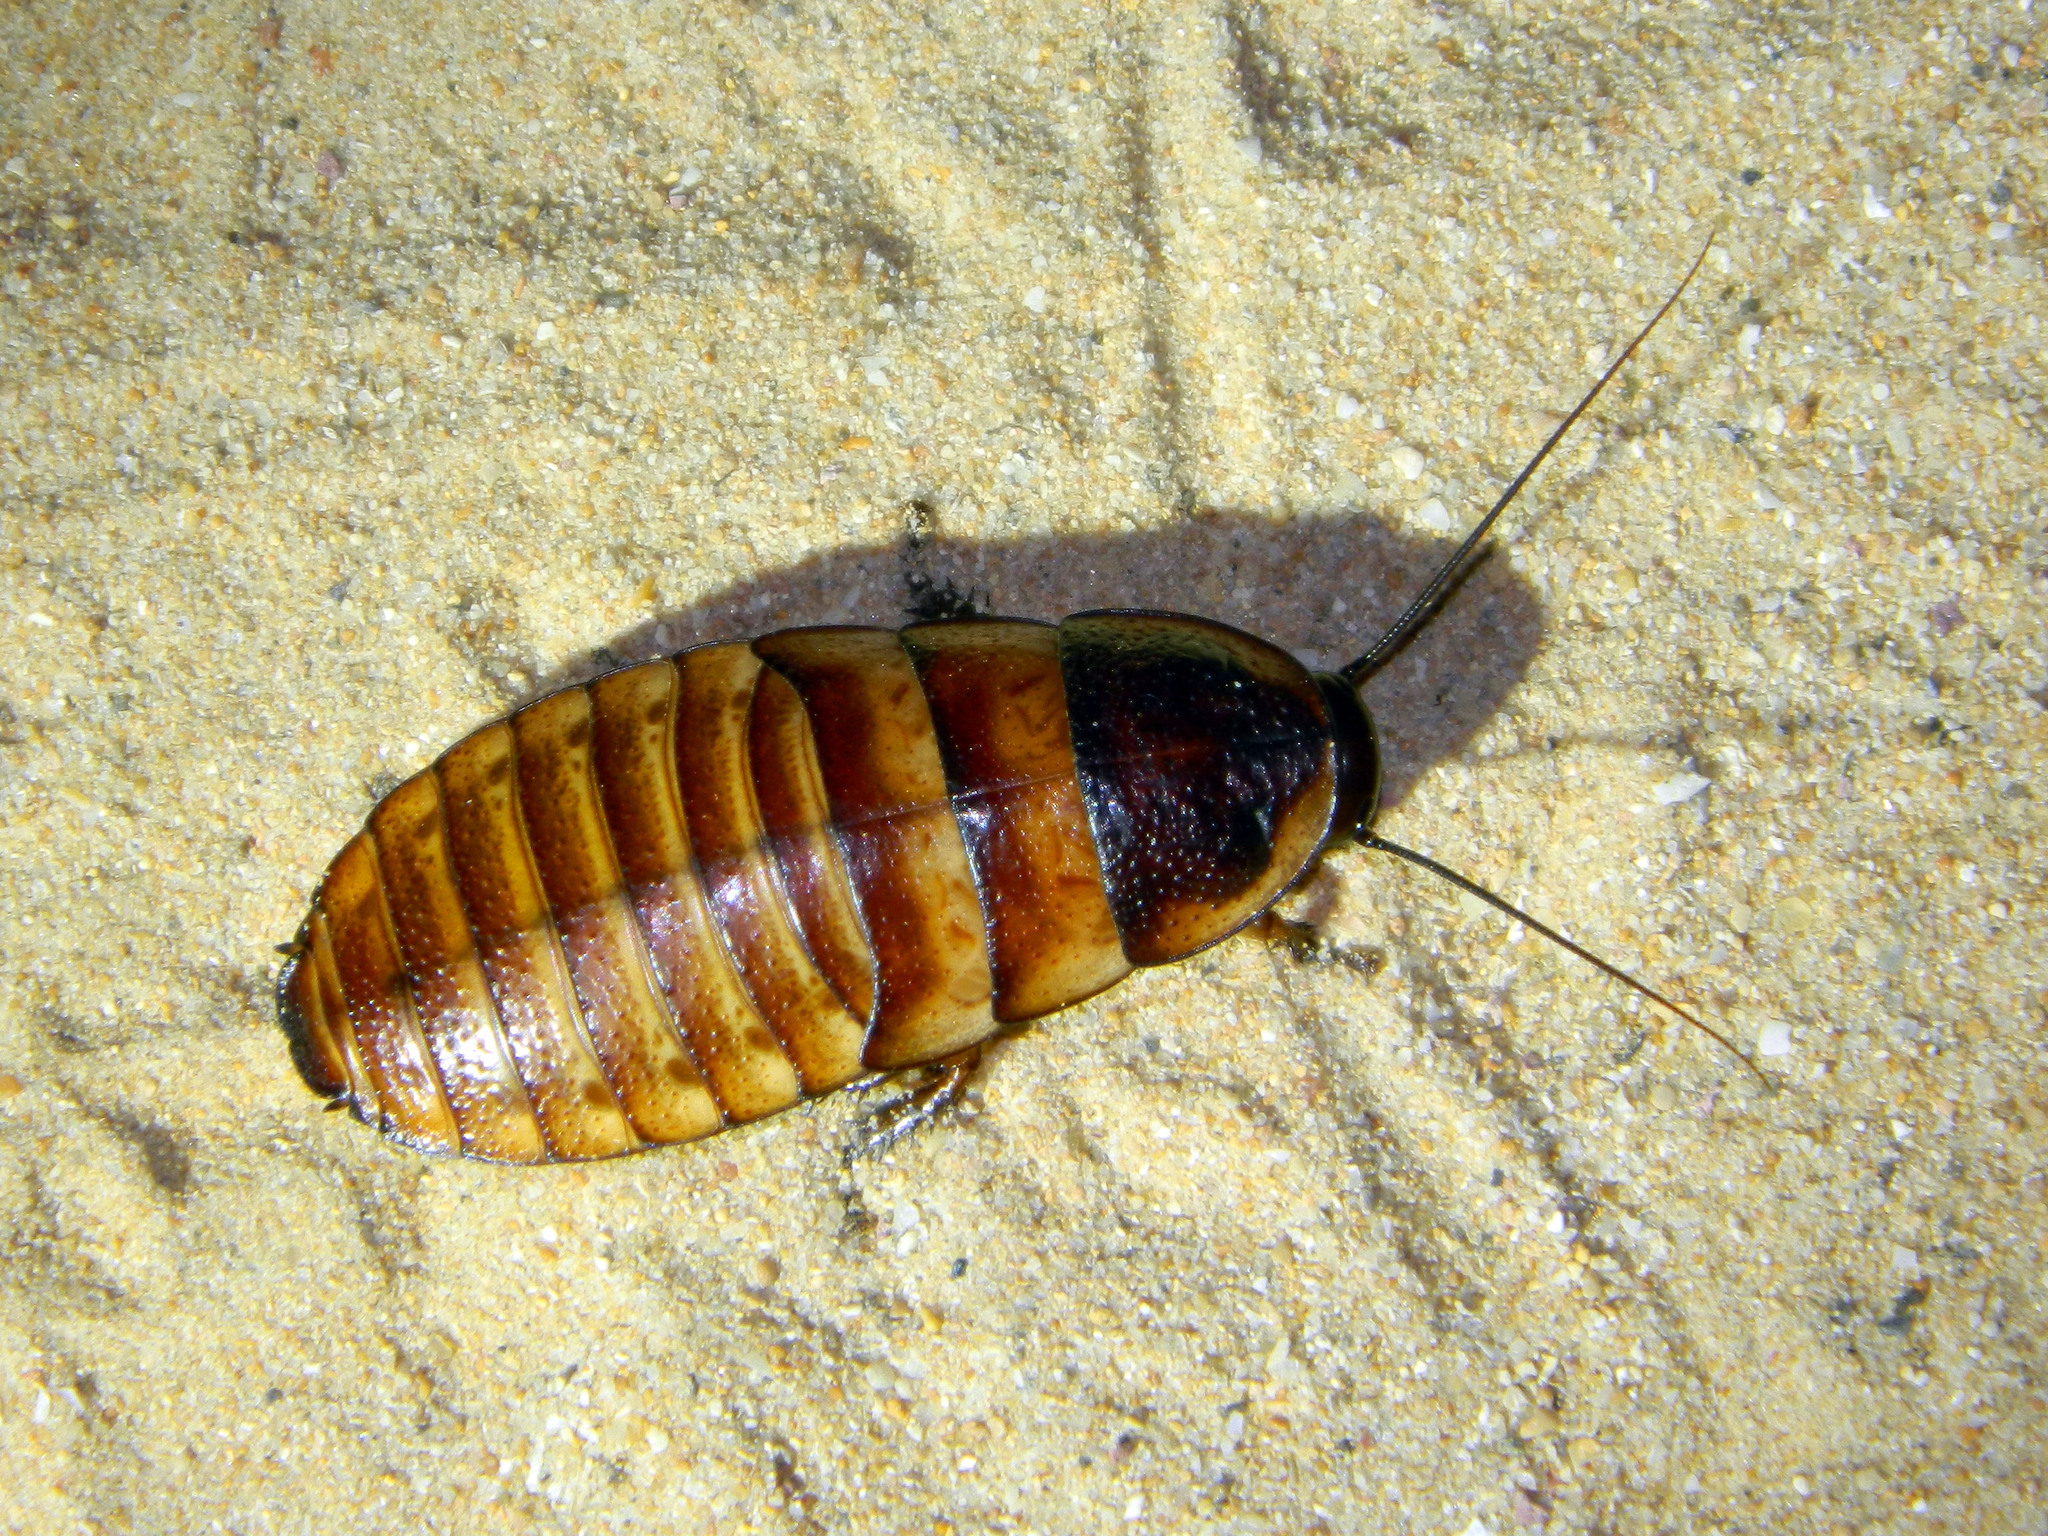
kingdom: Animalia
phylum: Arthropoda
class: Insecta
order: Blattodea
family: Blaberidae
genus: Elliptorhina
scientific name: Elliptorhina chopardi
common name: Chopard's madagascan hissing cockroach
